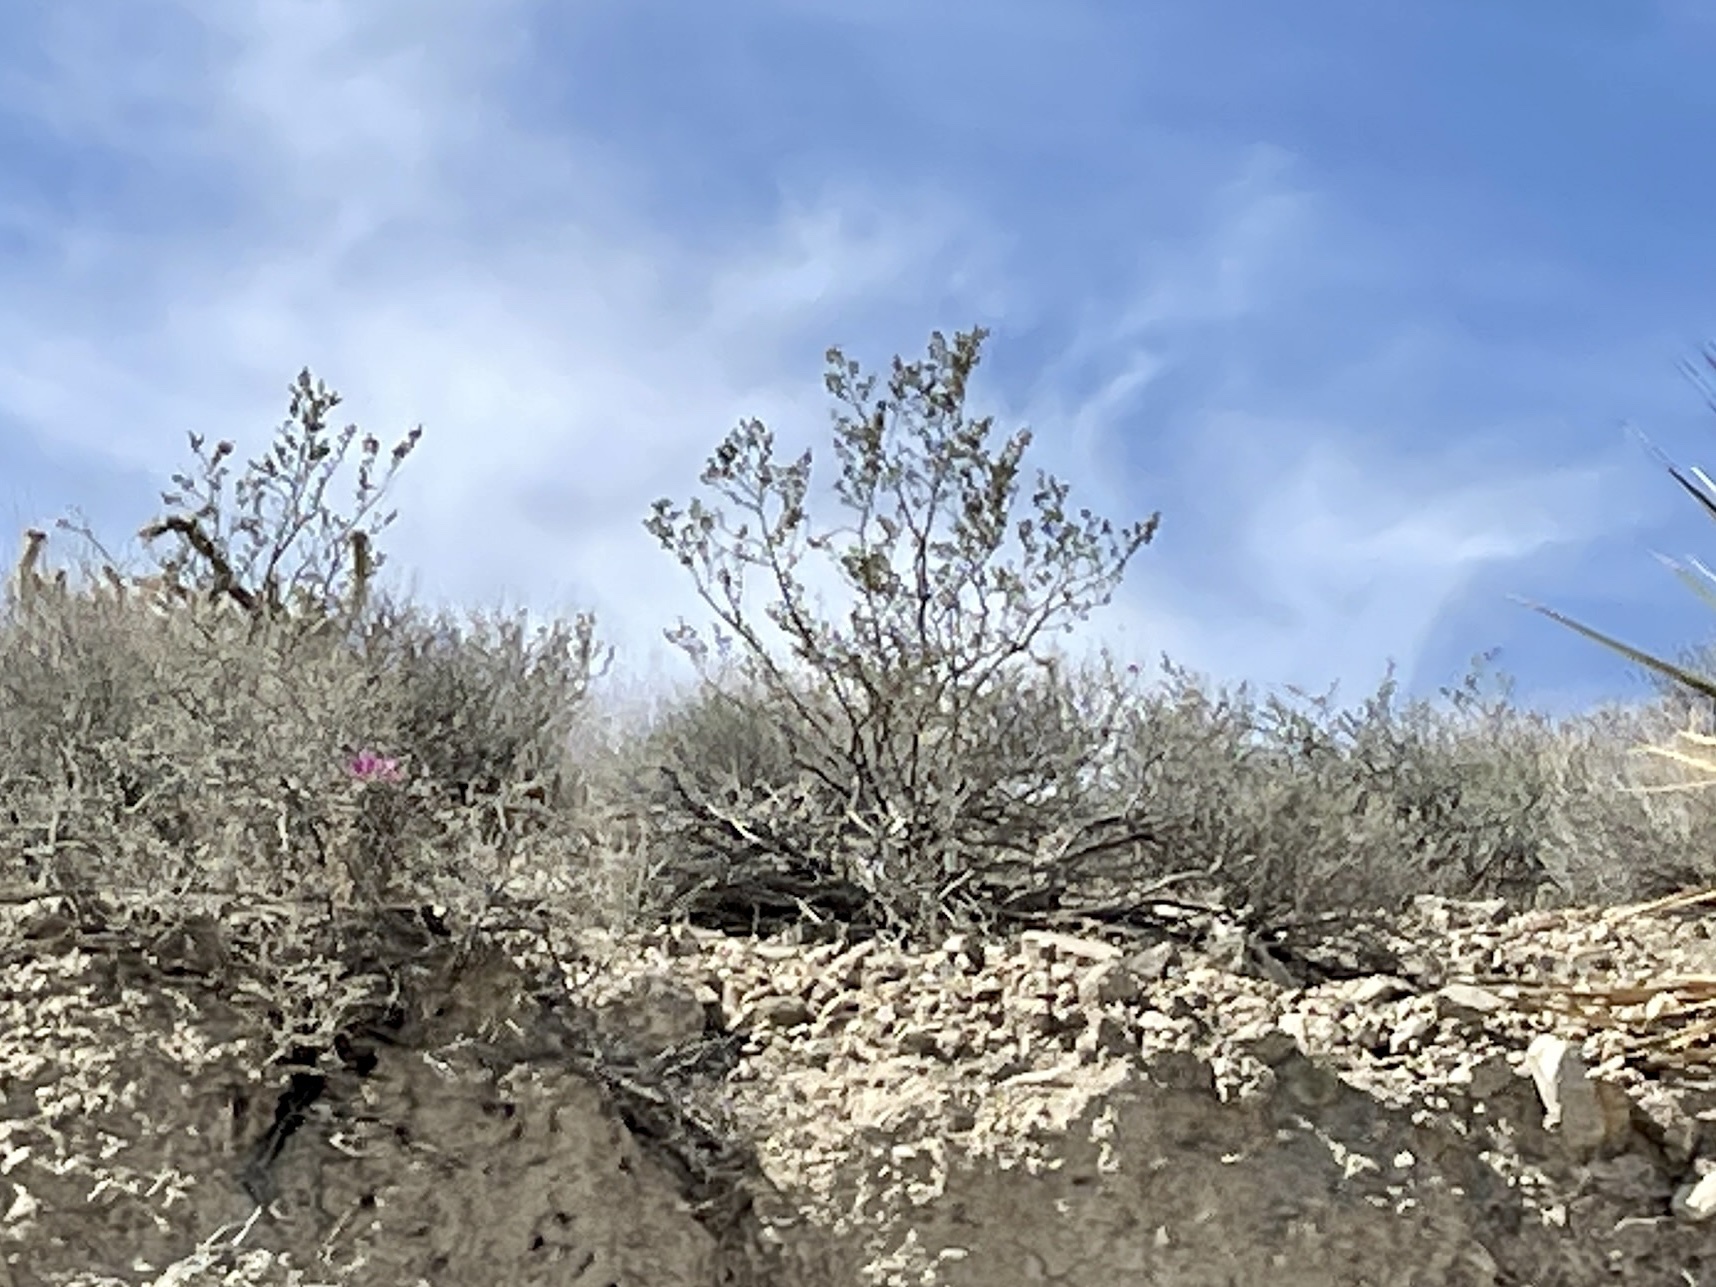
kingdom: Plantae
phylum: Tracheophyta
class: Magnoliopsida
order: Zygophyllales
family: Zygophyllaceae
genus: Larrea
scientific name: Larrea tridentata
